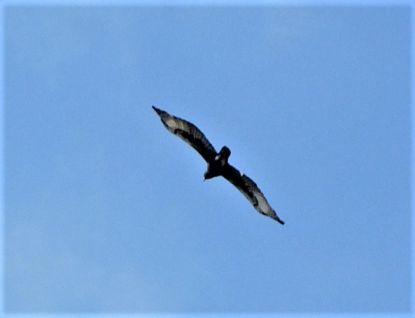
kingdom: Animalia
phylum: Chordata
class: Aves
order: Accipitriformes
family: Accipitridae
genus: Lophaetus
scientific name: Lophaetus occipitalis
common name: Long-crested eagle
